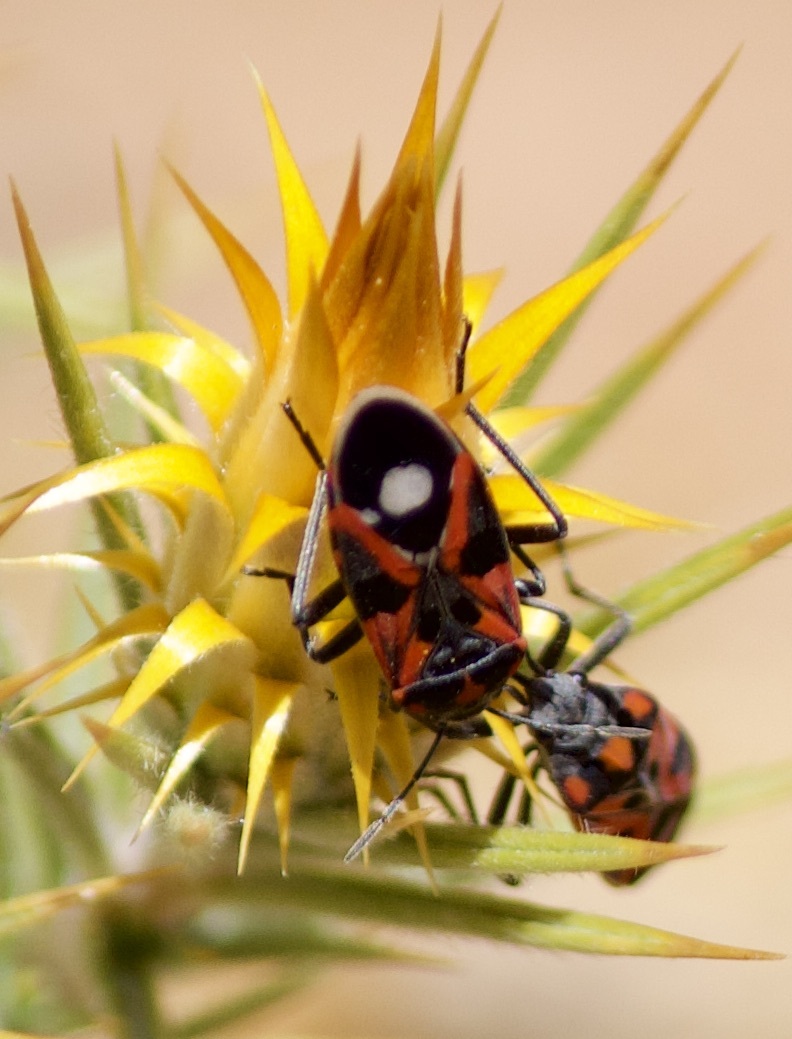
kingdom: Animalia
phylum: Arthropoda
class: Insecta
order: Hemiptera
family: Lygaeidae
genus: Lygaeus
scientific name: Lygaeus alboornatus
